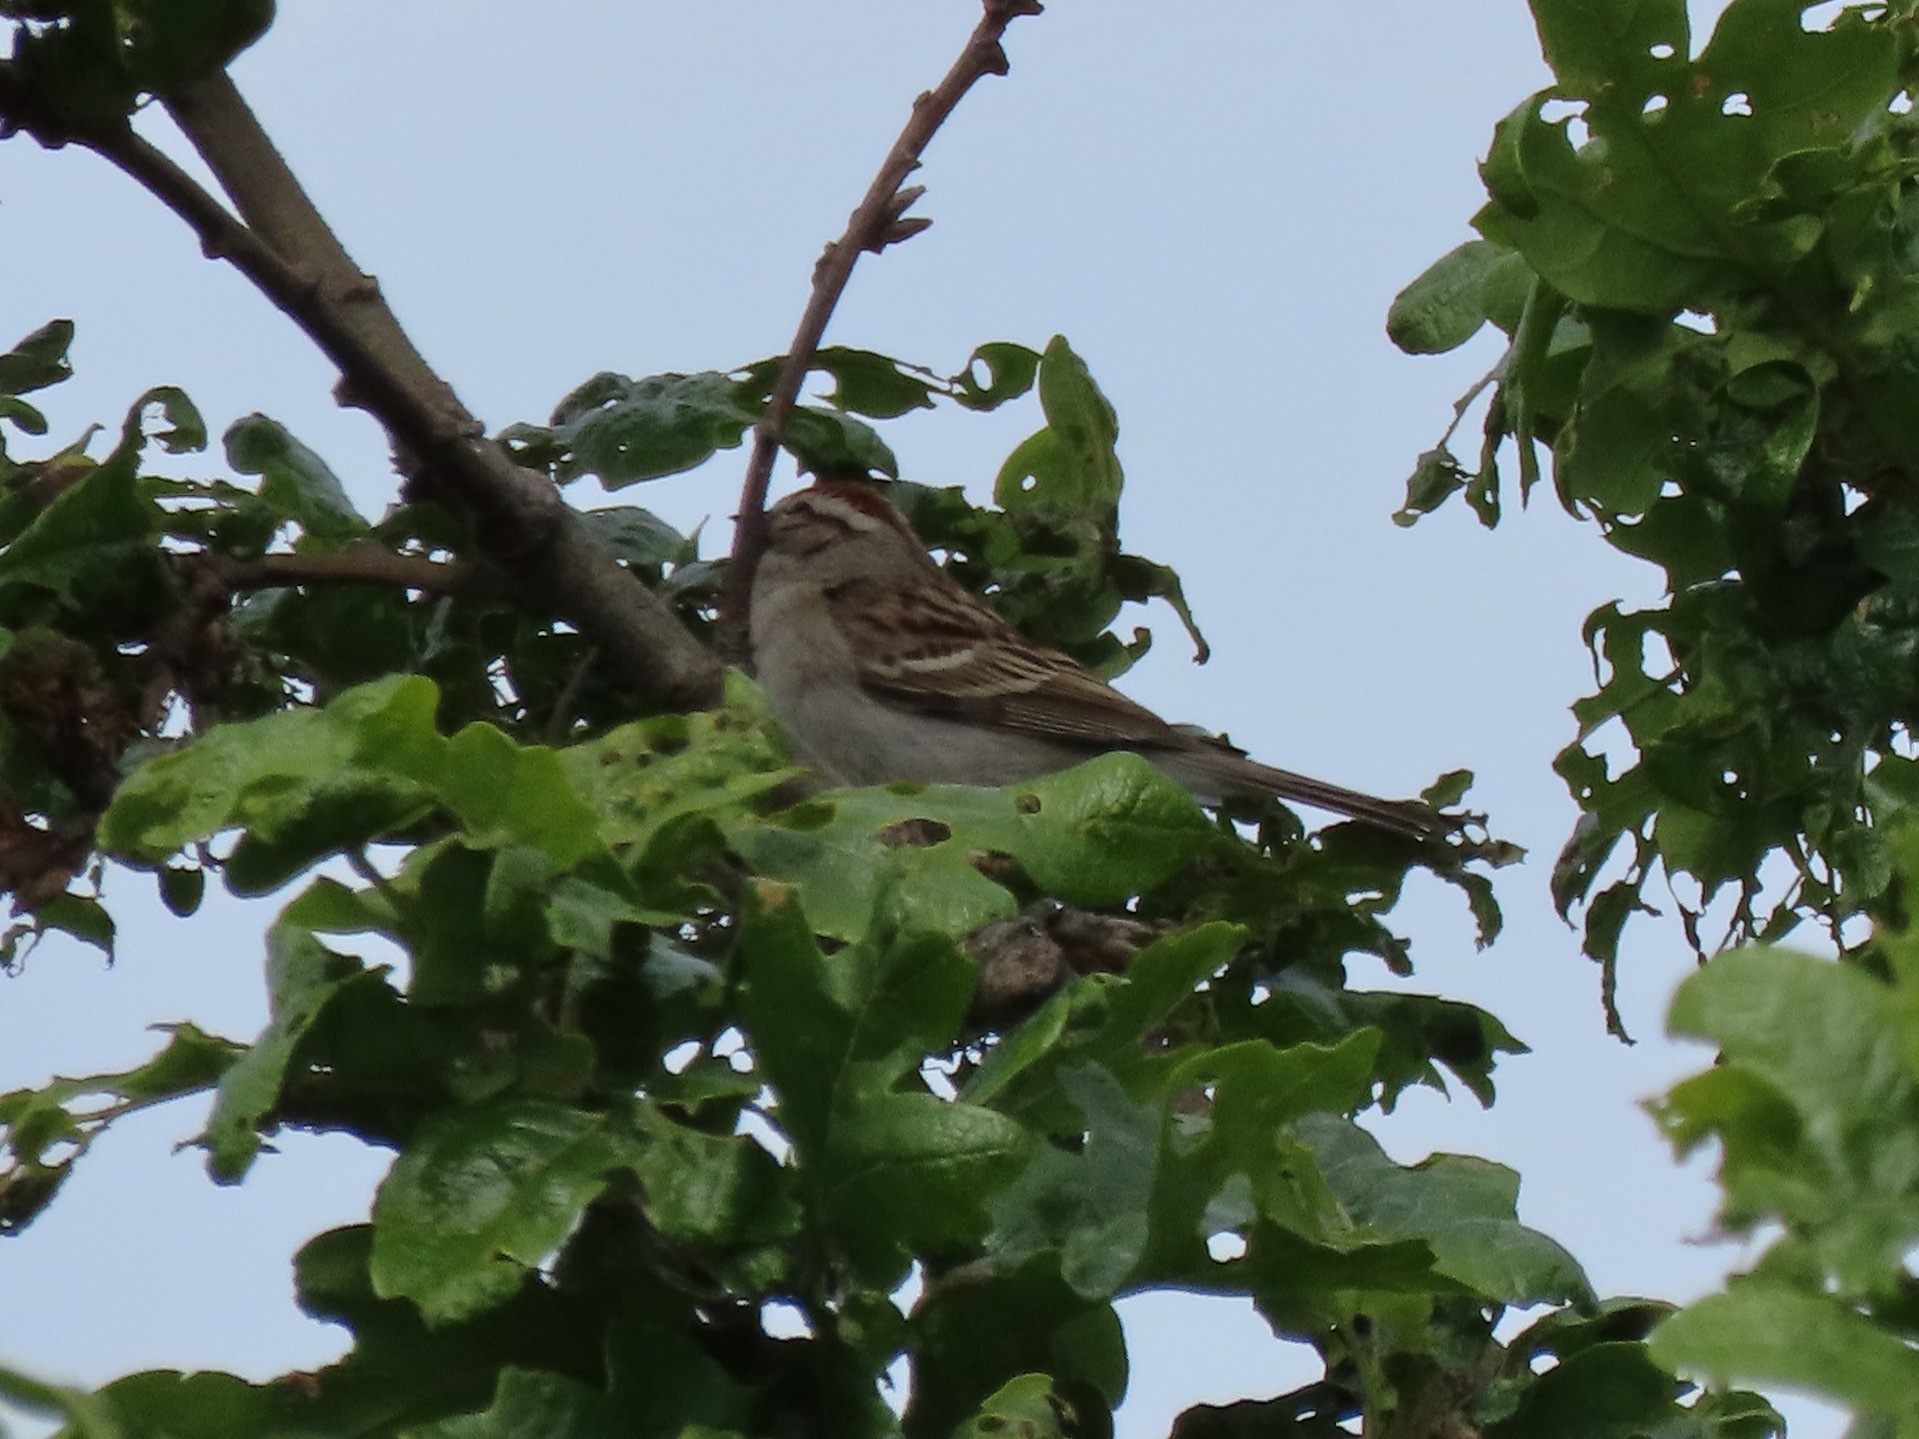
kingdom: Animalia
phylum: Chordata
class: Aves
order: Passeriformes
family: Passerellidae
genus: Spizella
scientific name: Spizella passerina
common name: Chipping sparrow
